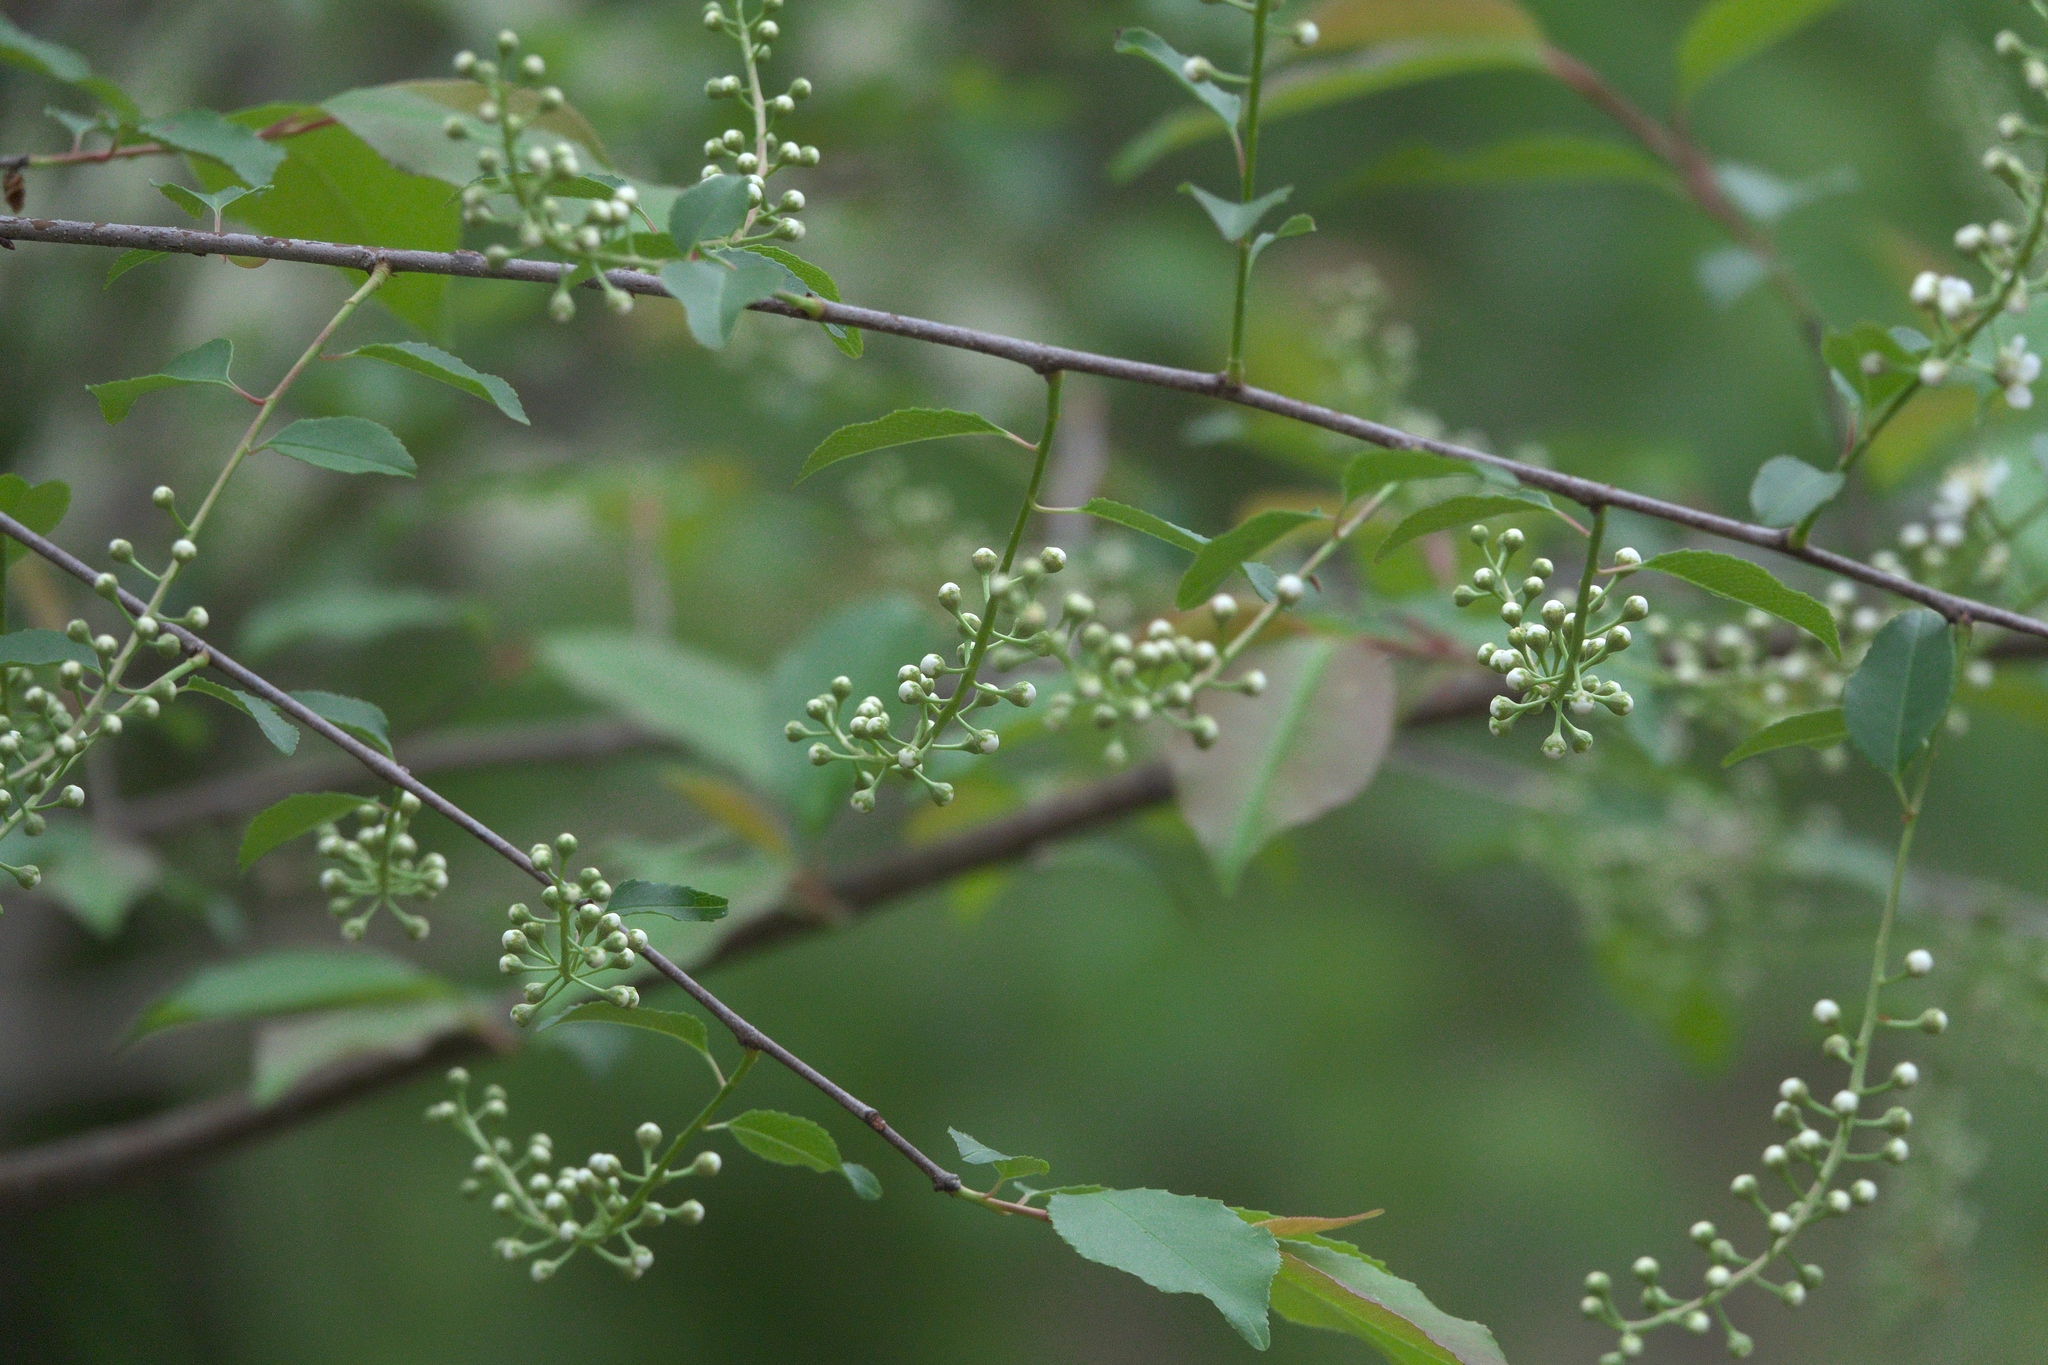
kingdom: Plantae
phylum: Tracheophyta
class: Magnoliopsida
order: Rosales
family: Rosaceae
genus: Prunus
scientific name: Prunus serotina
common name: Black cherry
